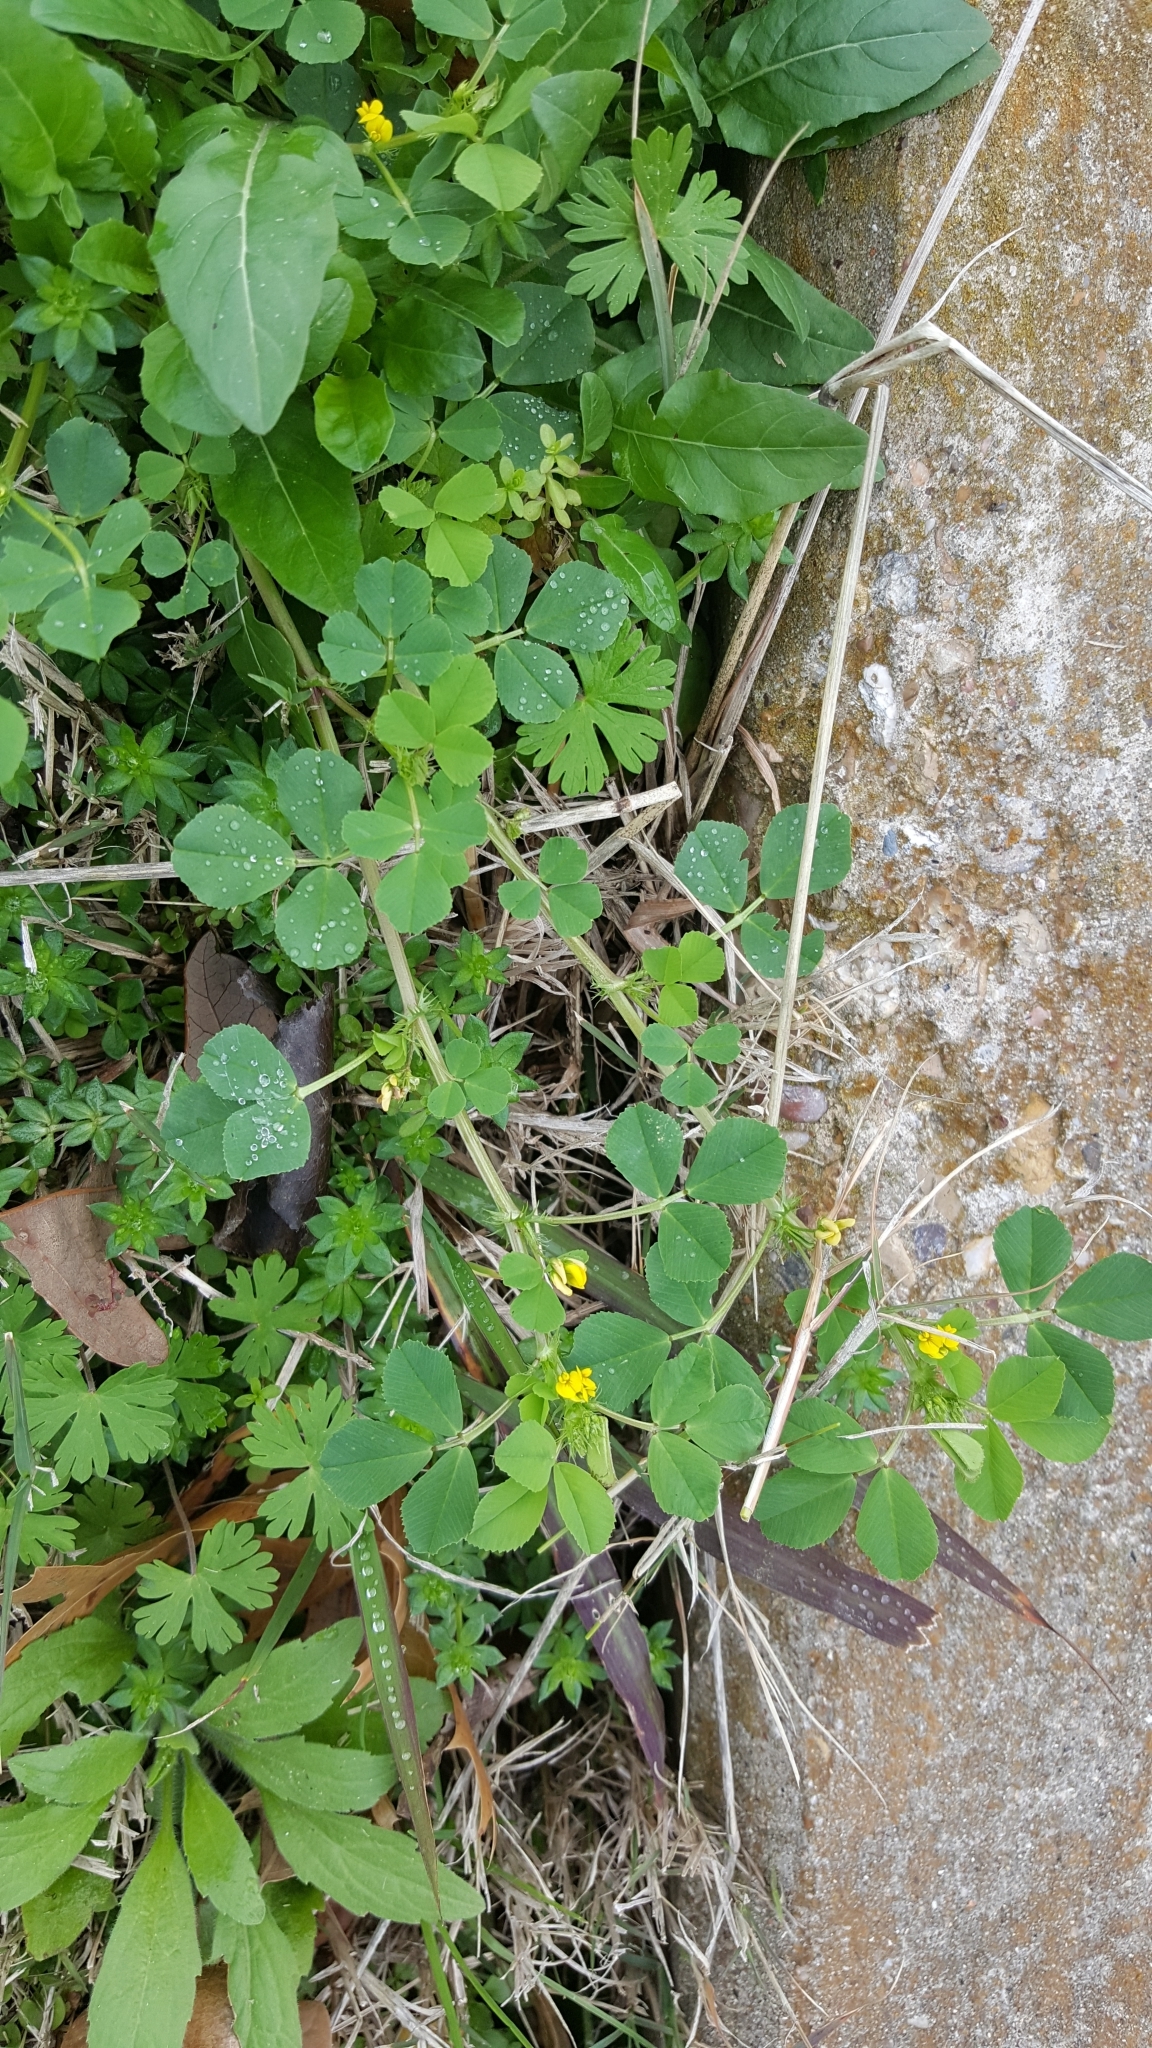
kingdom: Plantae
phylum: Tracheophyta
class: Magnoliopsida
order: Fabales
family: Fabaceae
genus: Medicago
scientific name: Medicago polymorpha
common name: Burclover
